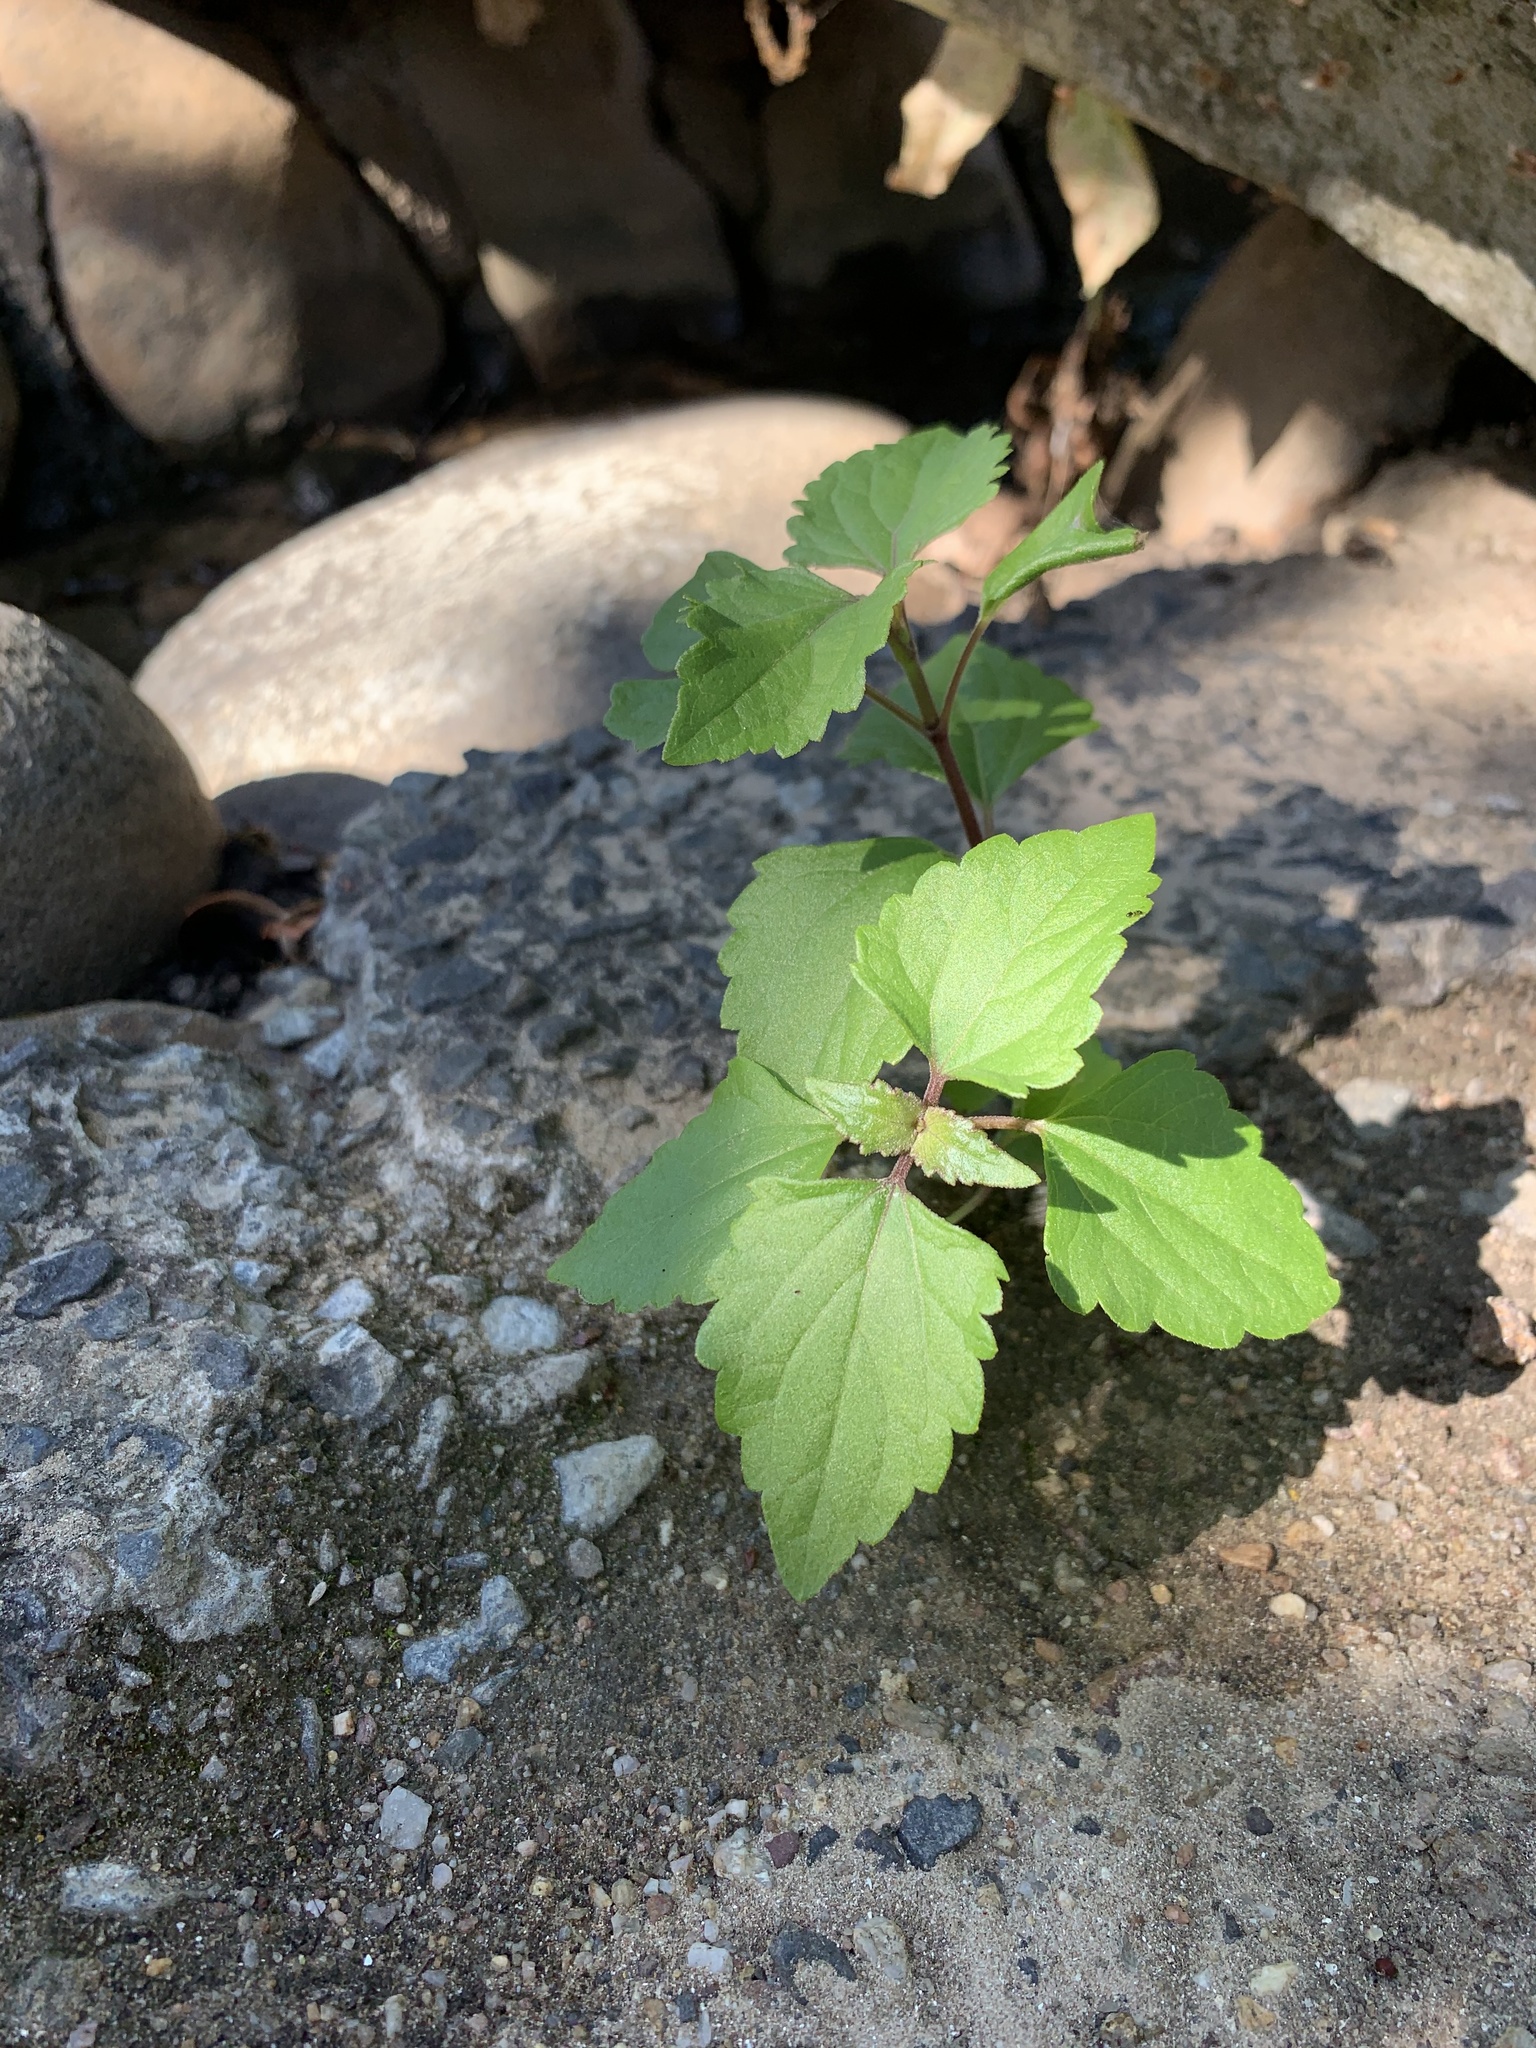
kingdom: Plantae
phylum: Tracheophyta
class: Magnoliopsida
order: Asterales
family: Asteraceae
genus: Ageratina
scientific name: Ageratina adenophora
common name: Sticky snakeroot
